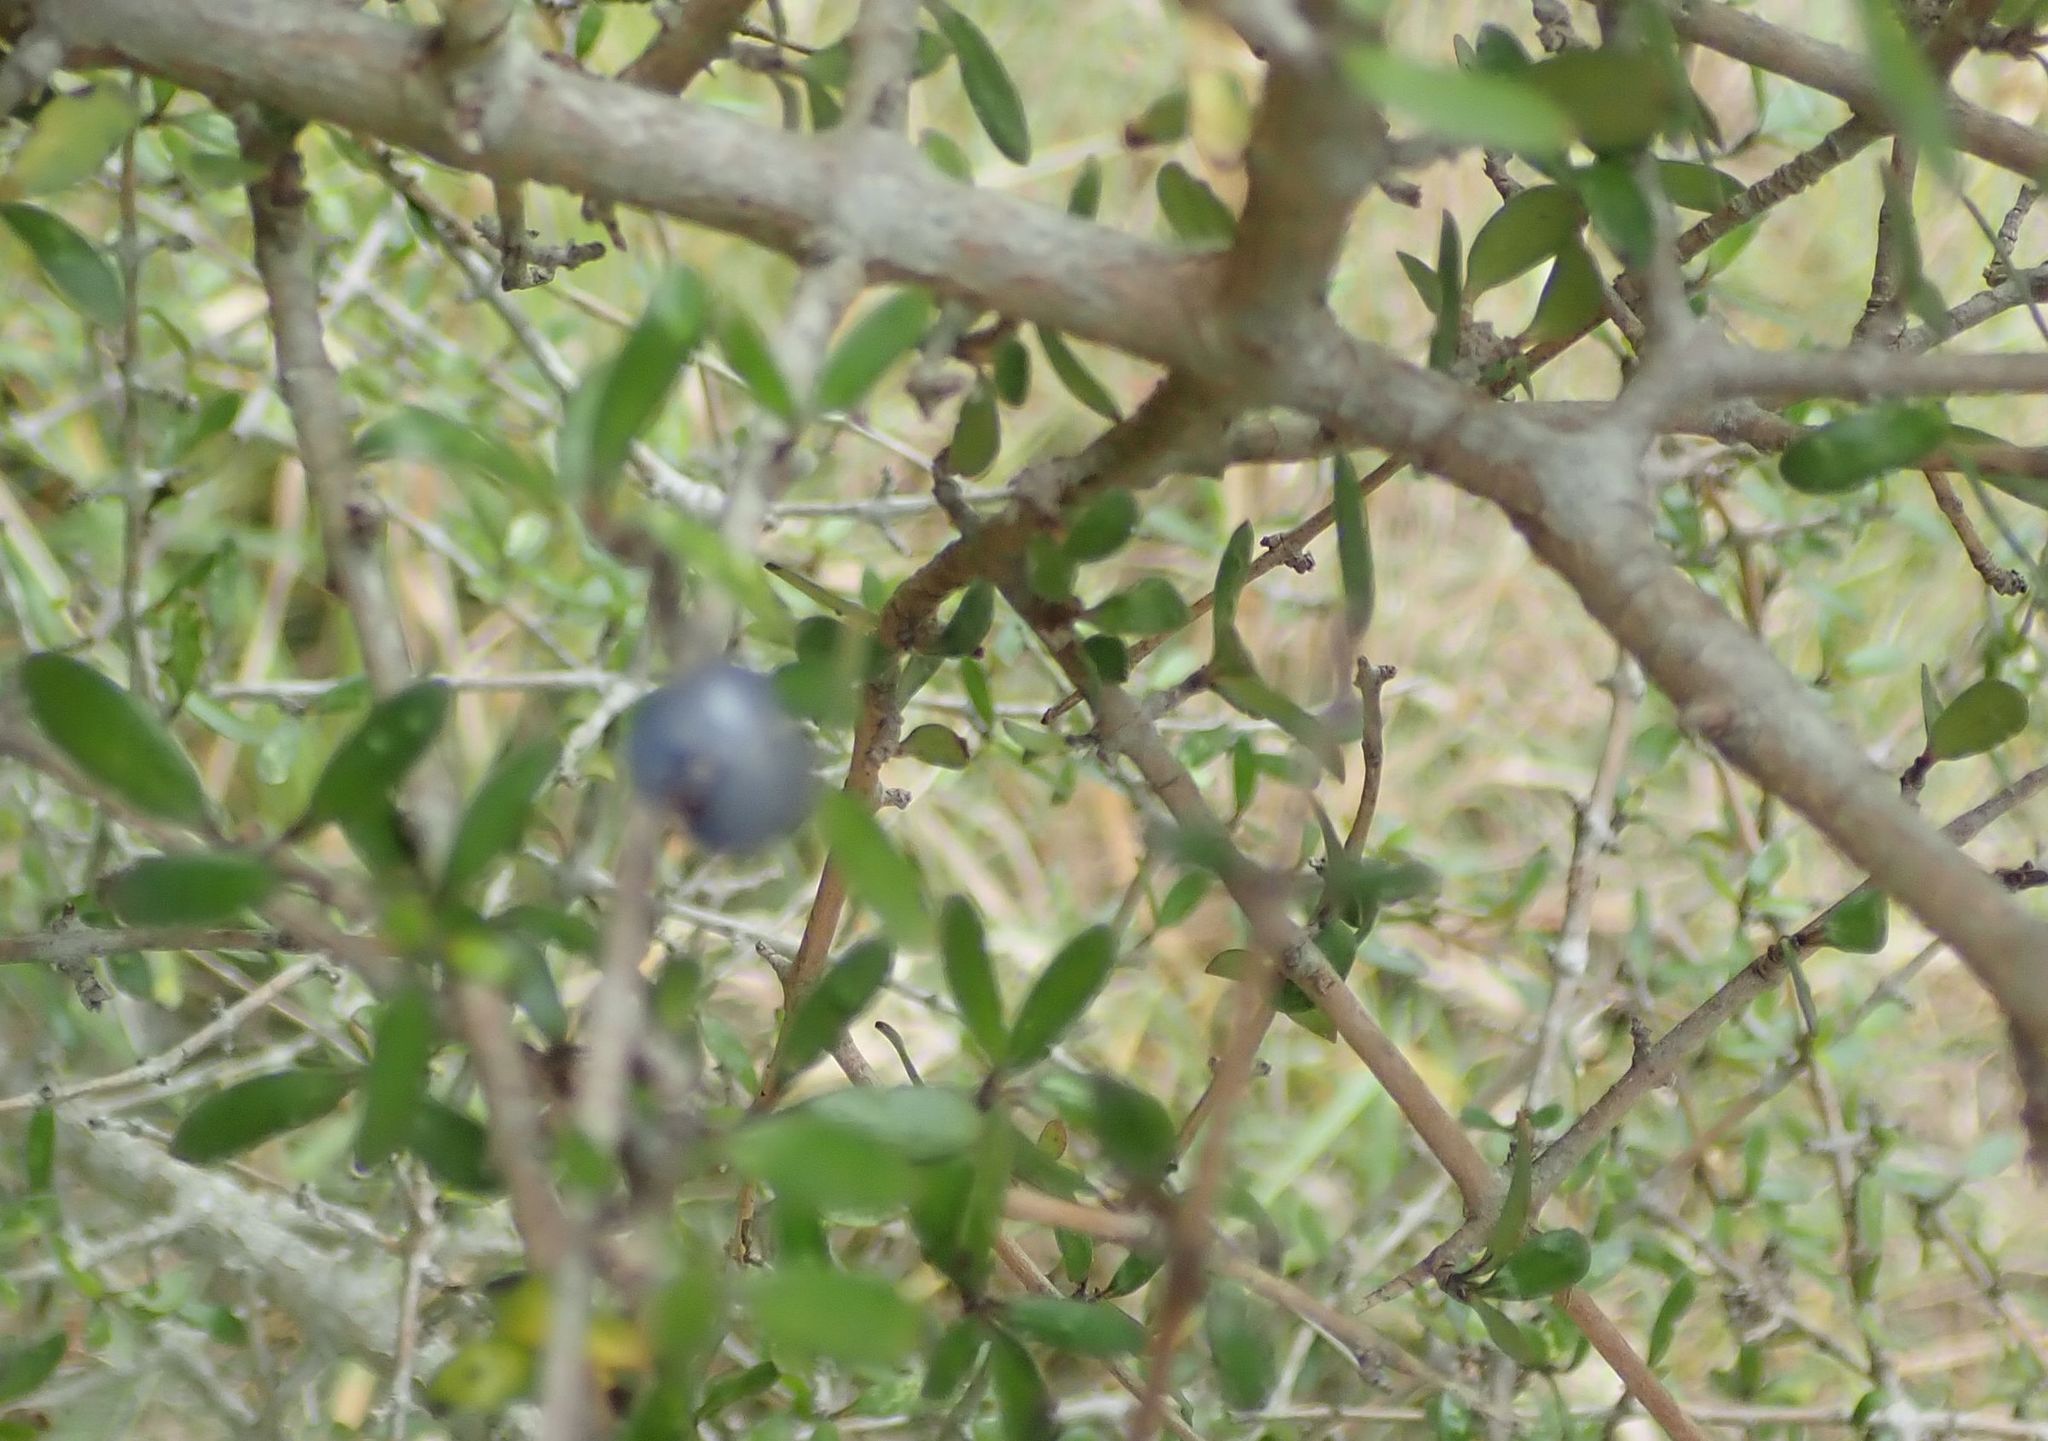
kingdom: Plantae
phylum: Tracheophyta
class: Magnoliopsida
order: Gentianales
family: Rubiaceae
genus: Coprosma
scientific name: Coprosma propinqua
